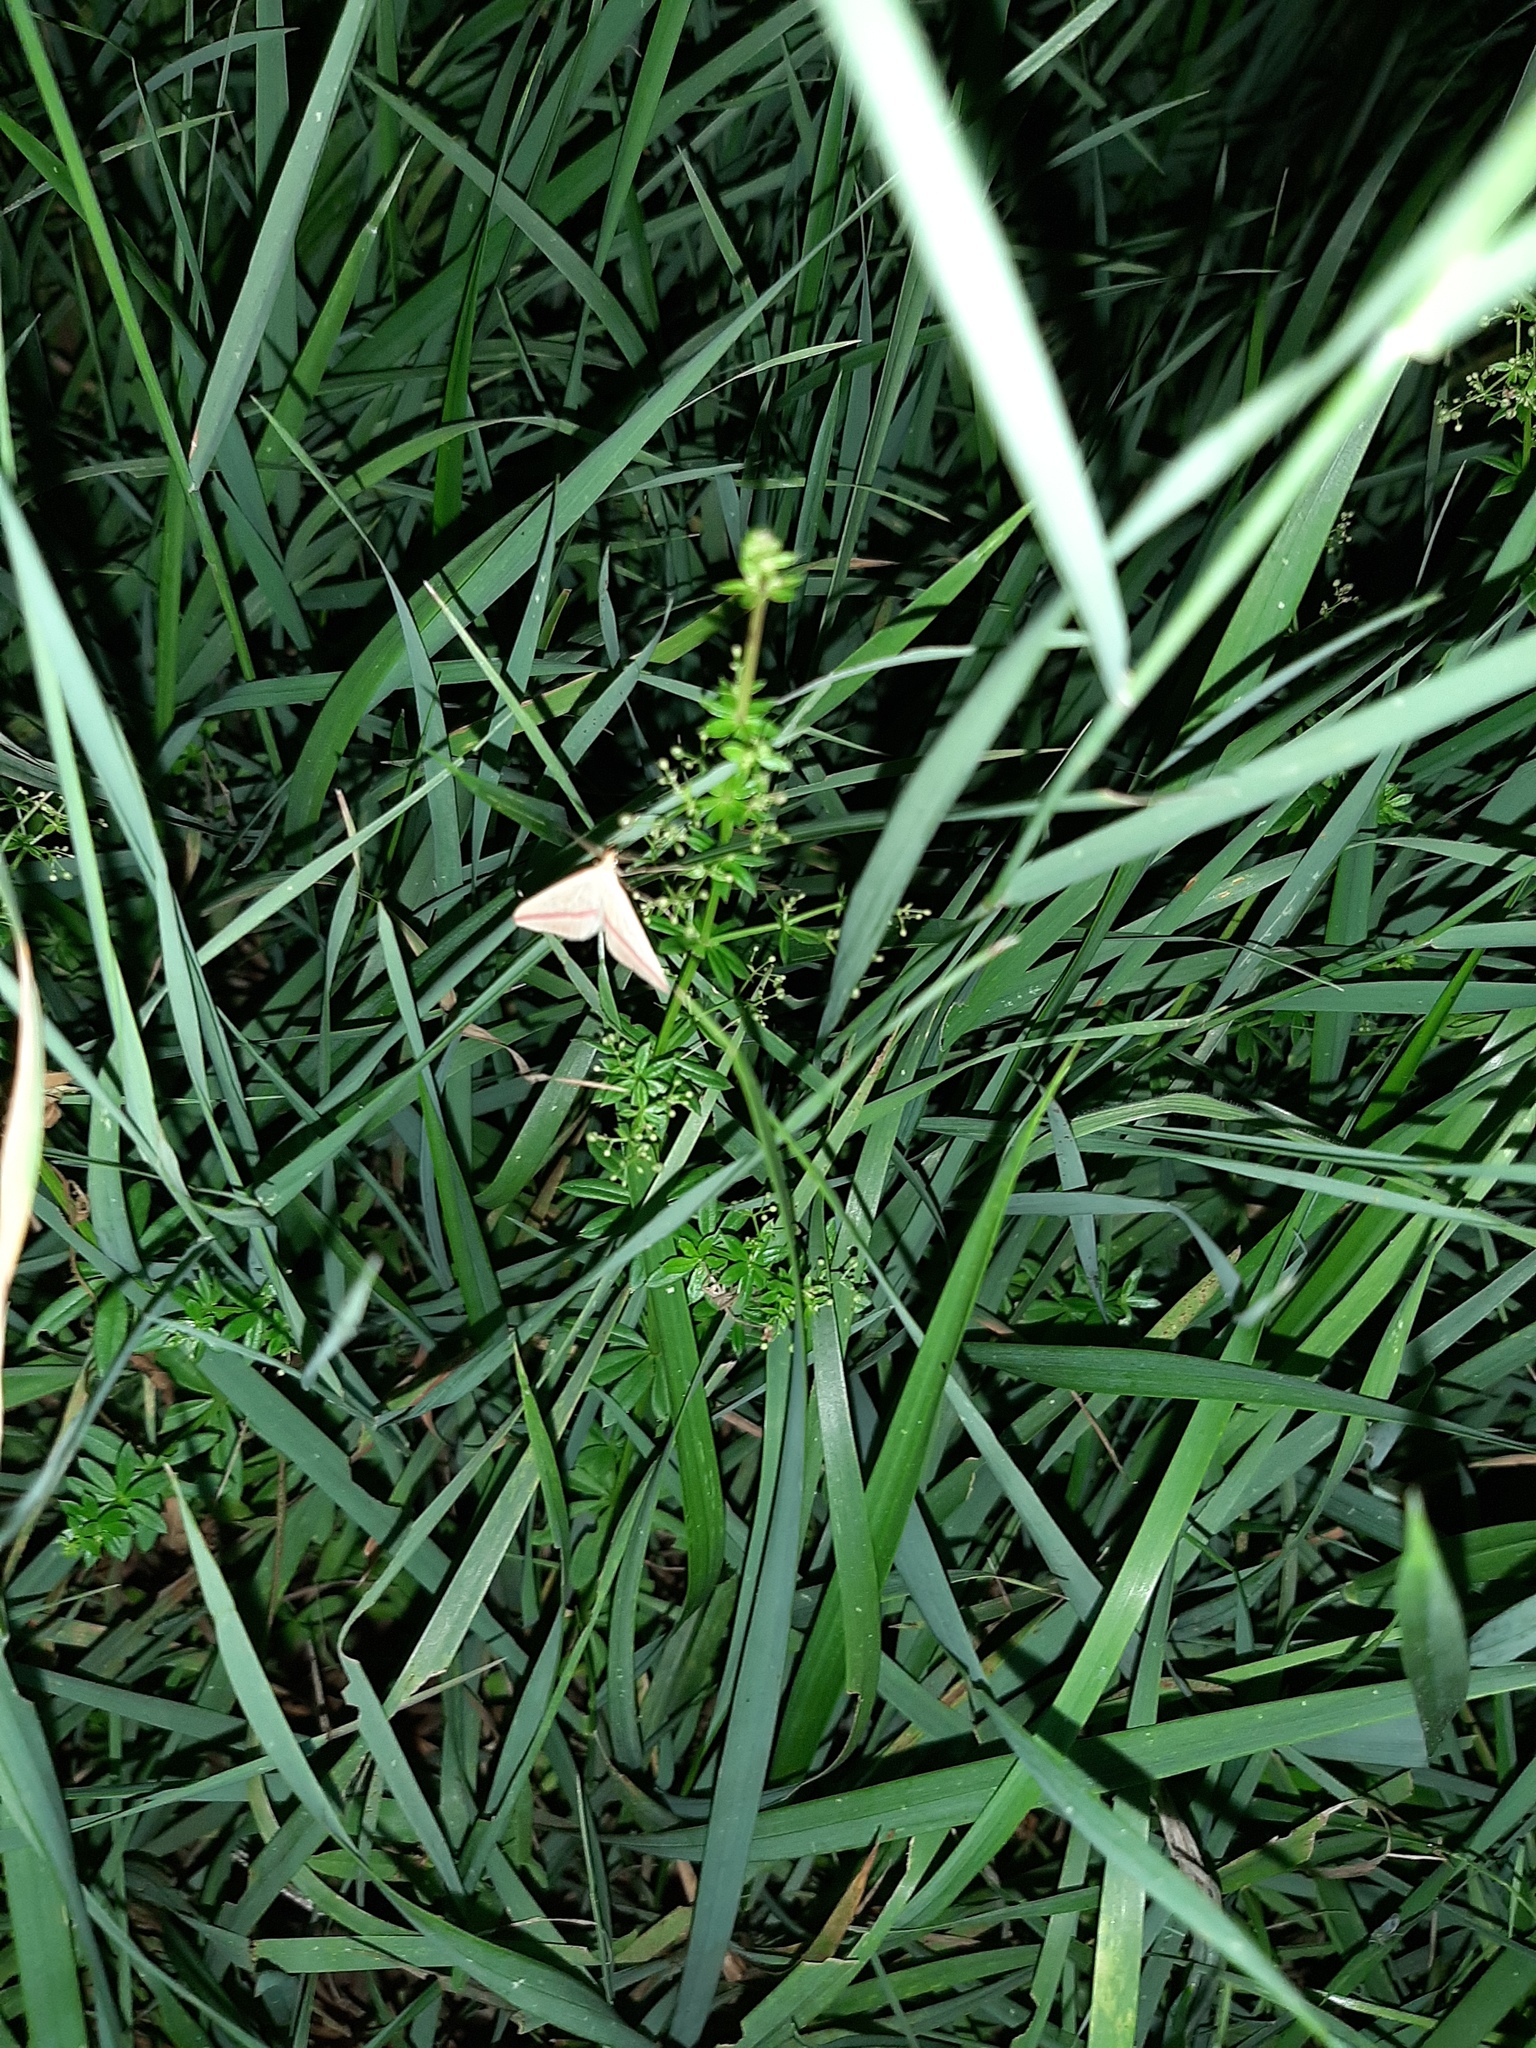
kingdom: Animalia
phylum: Arthropoda
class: Insecta
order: Lepidoptera
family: Geometridae
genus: Rhodometra
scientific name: Rhodometra sacraria
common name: Vestal
